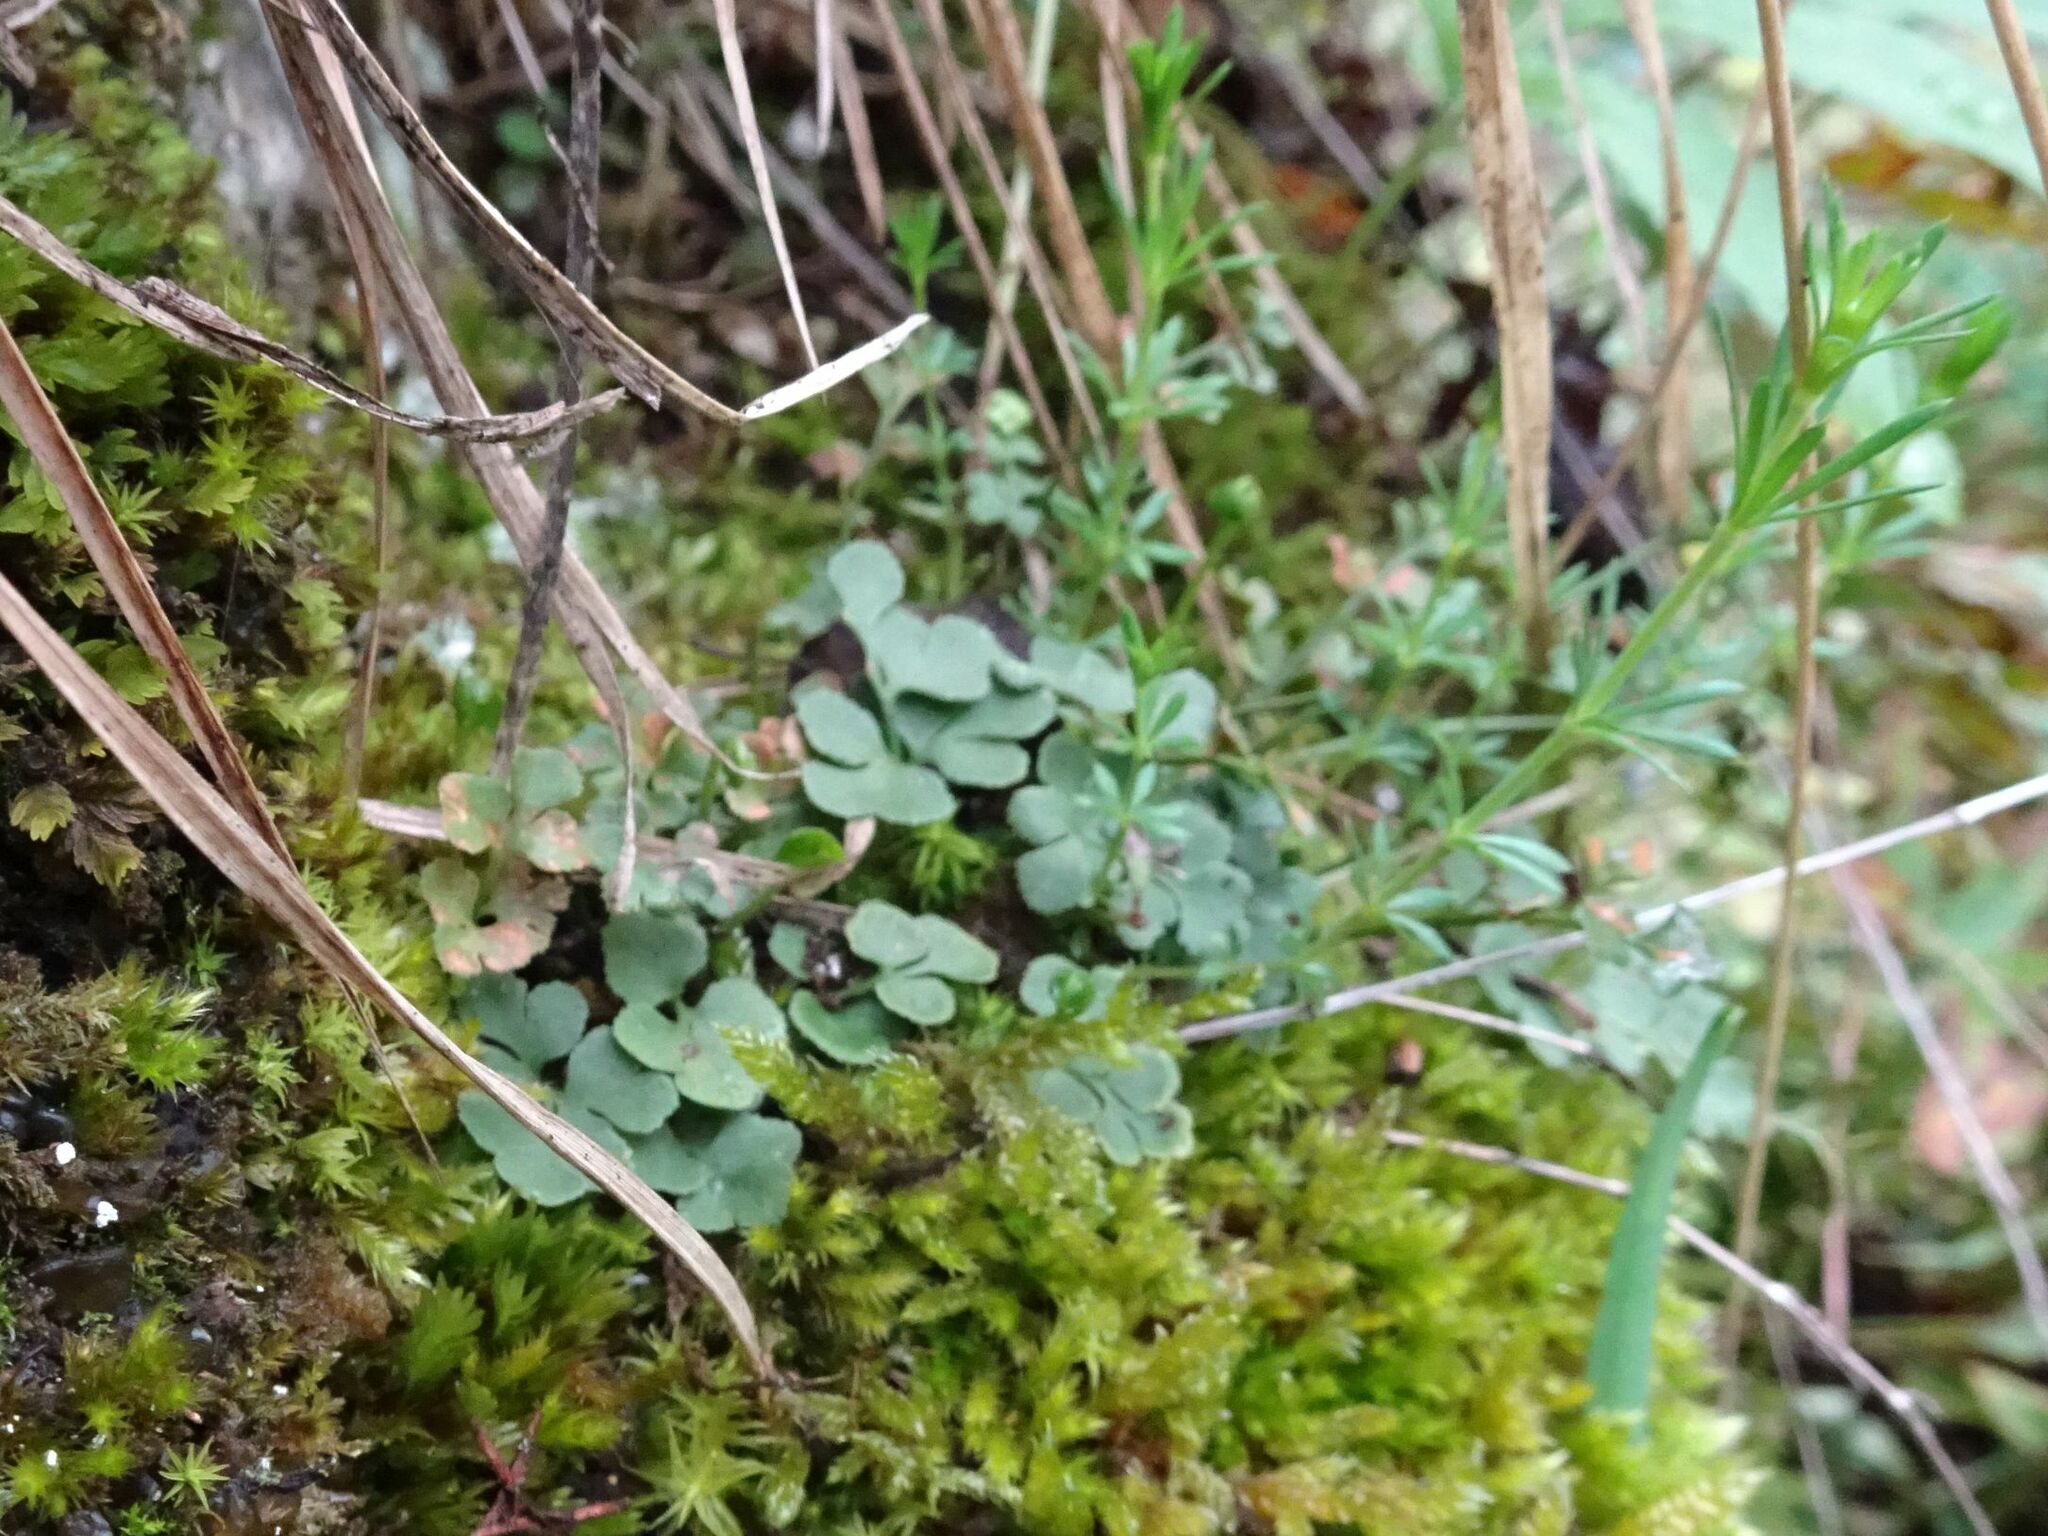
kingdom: Plantae
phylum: Tracheophyta
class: Polypodiopsida
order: Polypodiales
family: Aspleniaceae
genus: Asplenium
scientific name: Asplenium ruta-muraria
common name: Wall-rue
